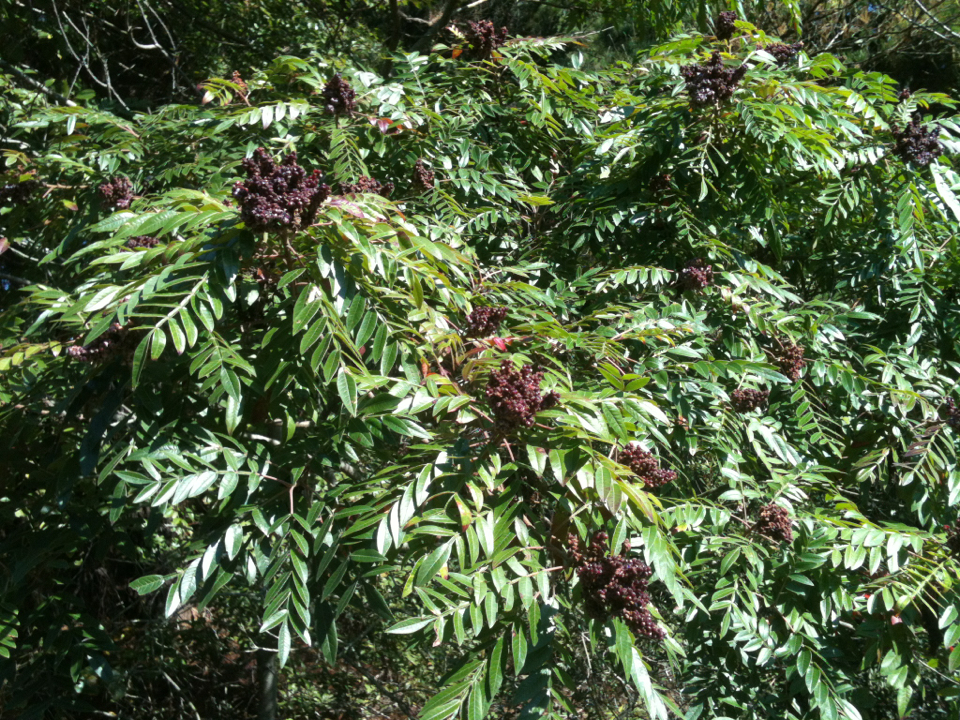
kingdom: Plantae
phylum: Tracheophyta
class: Magnoliopsida
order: Sapindales
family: Anacardiaceae
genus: Rhus
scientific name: Rhus copallina
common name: Shining sumac
